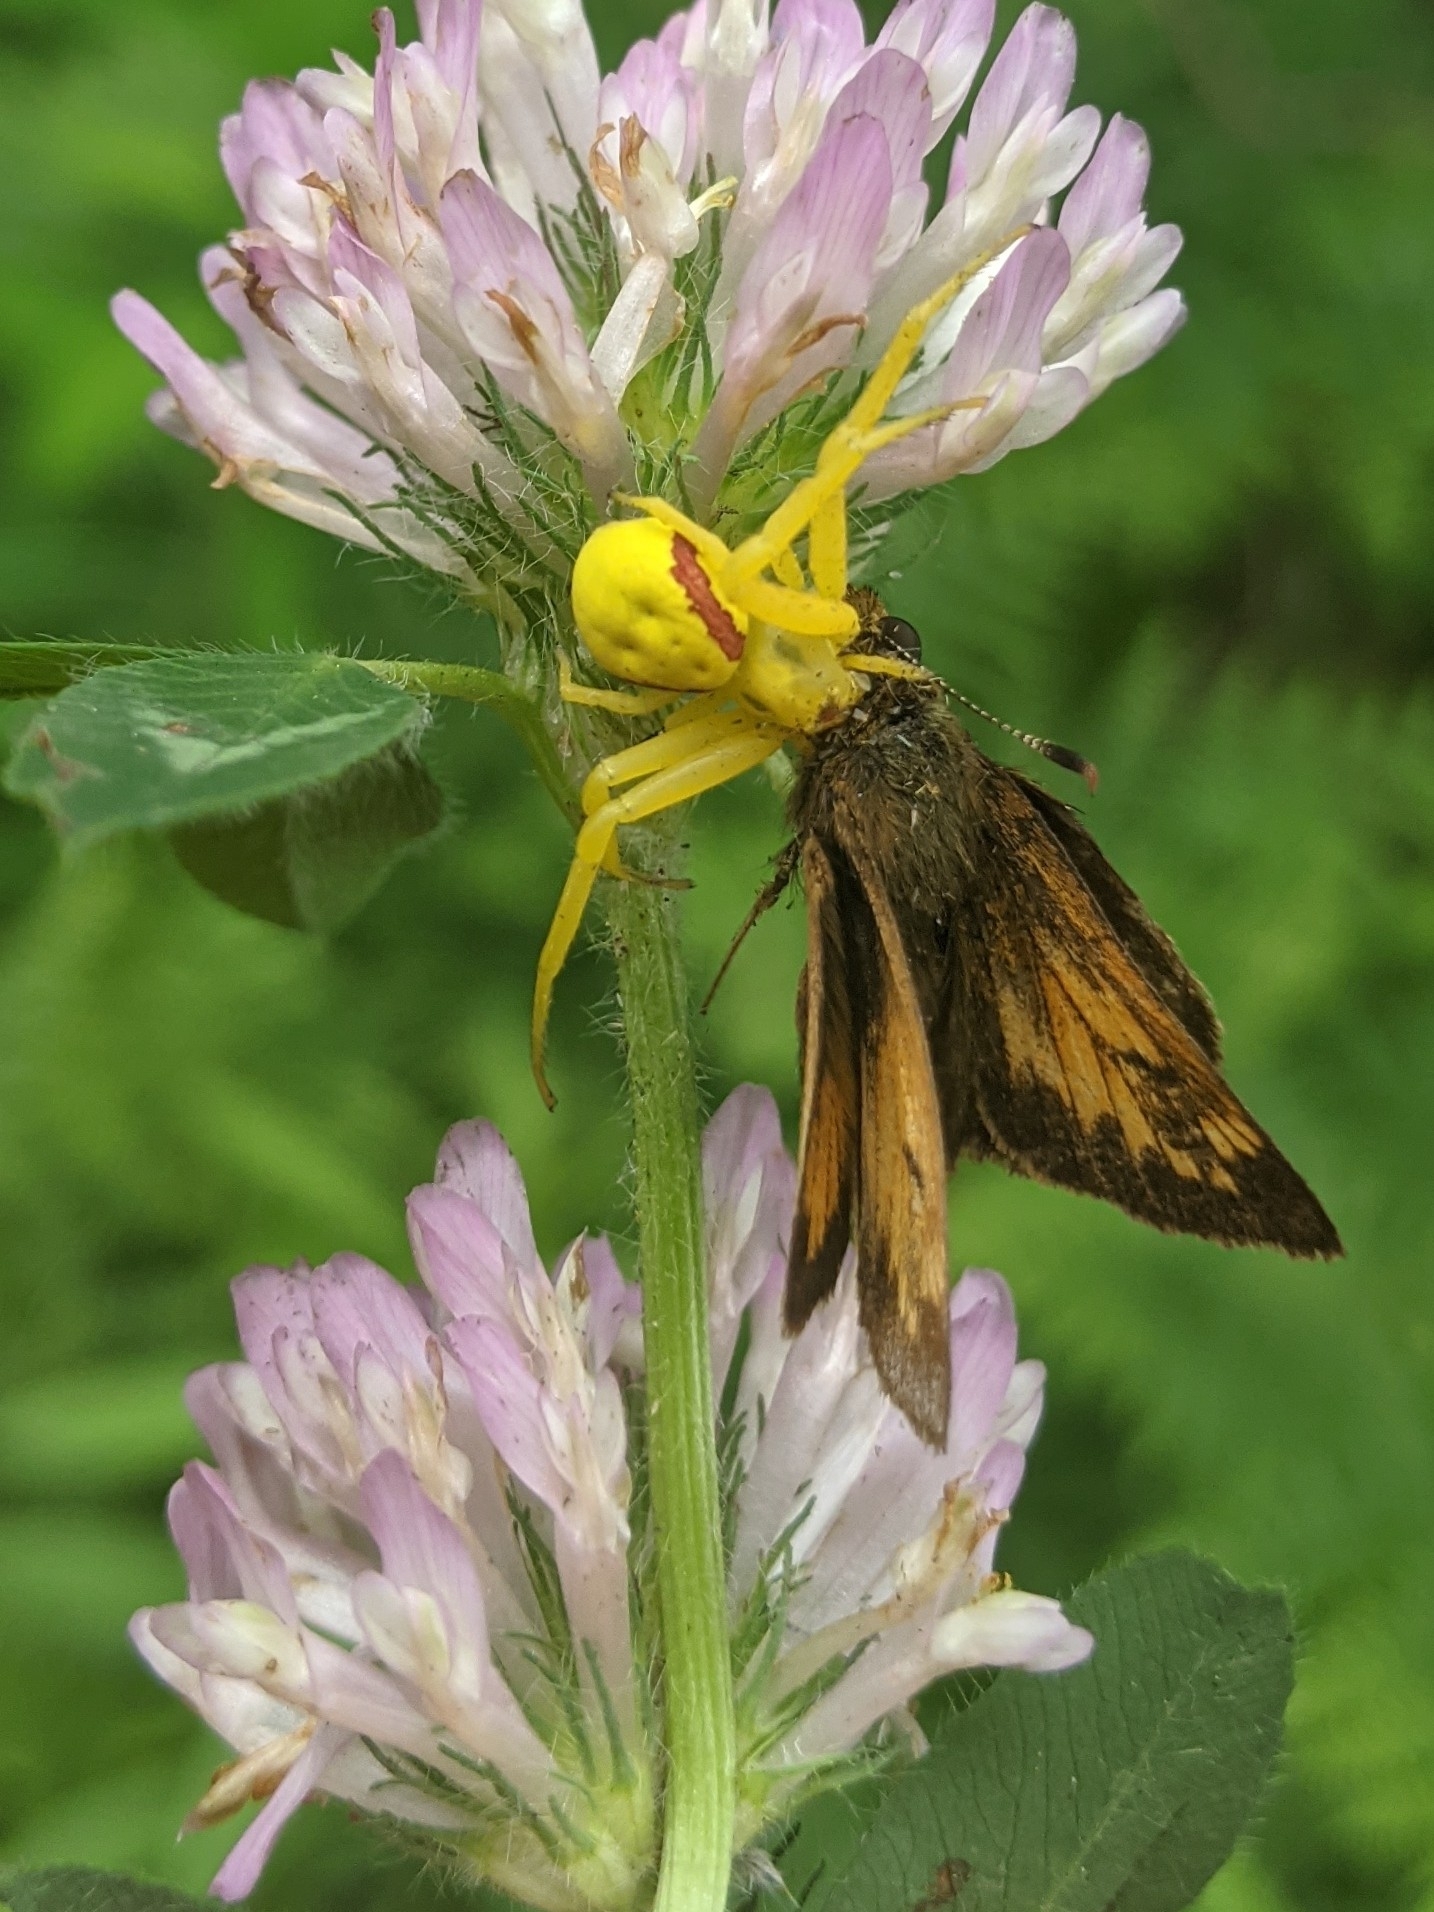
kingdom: Animalia
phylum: Arthropoda
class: Arachnida
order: Araneae
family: Thomisidae
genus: Misumena
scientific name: Misumena vatia
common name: Goldenrod crab spider
